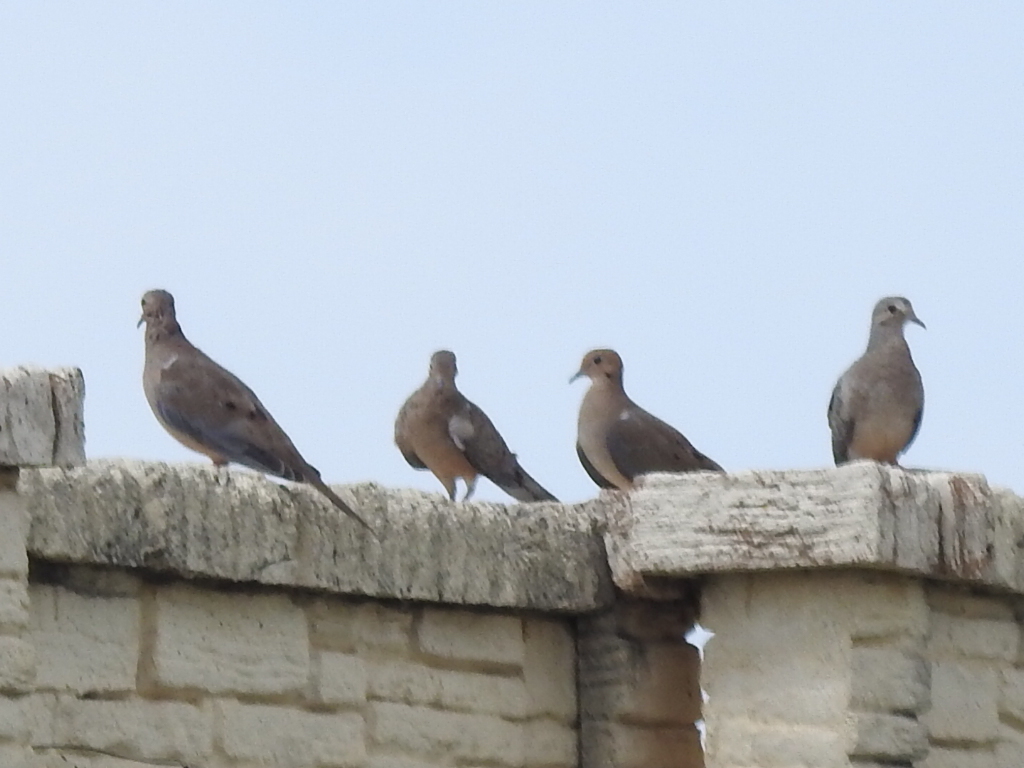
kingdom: Animalia
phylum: Chordata
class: Aves
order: Columbiformes
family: Columbidae
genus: Zenaida
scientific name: Zenaida macroura
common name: Mourning dove
